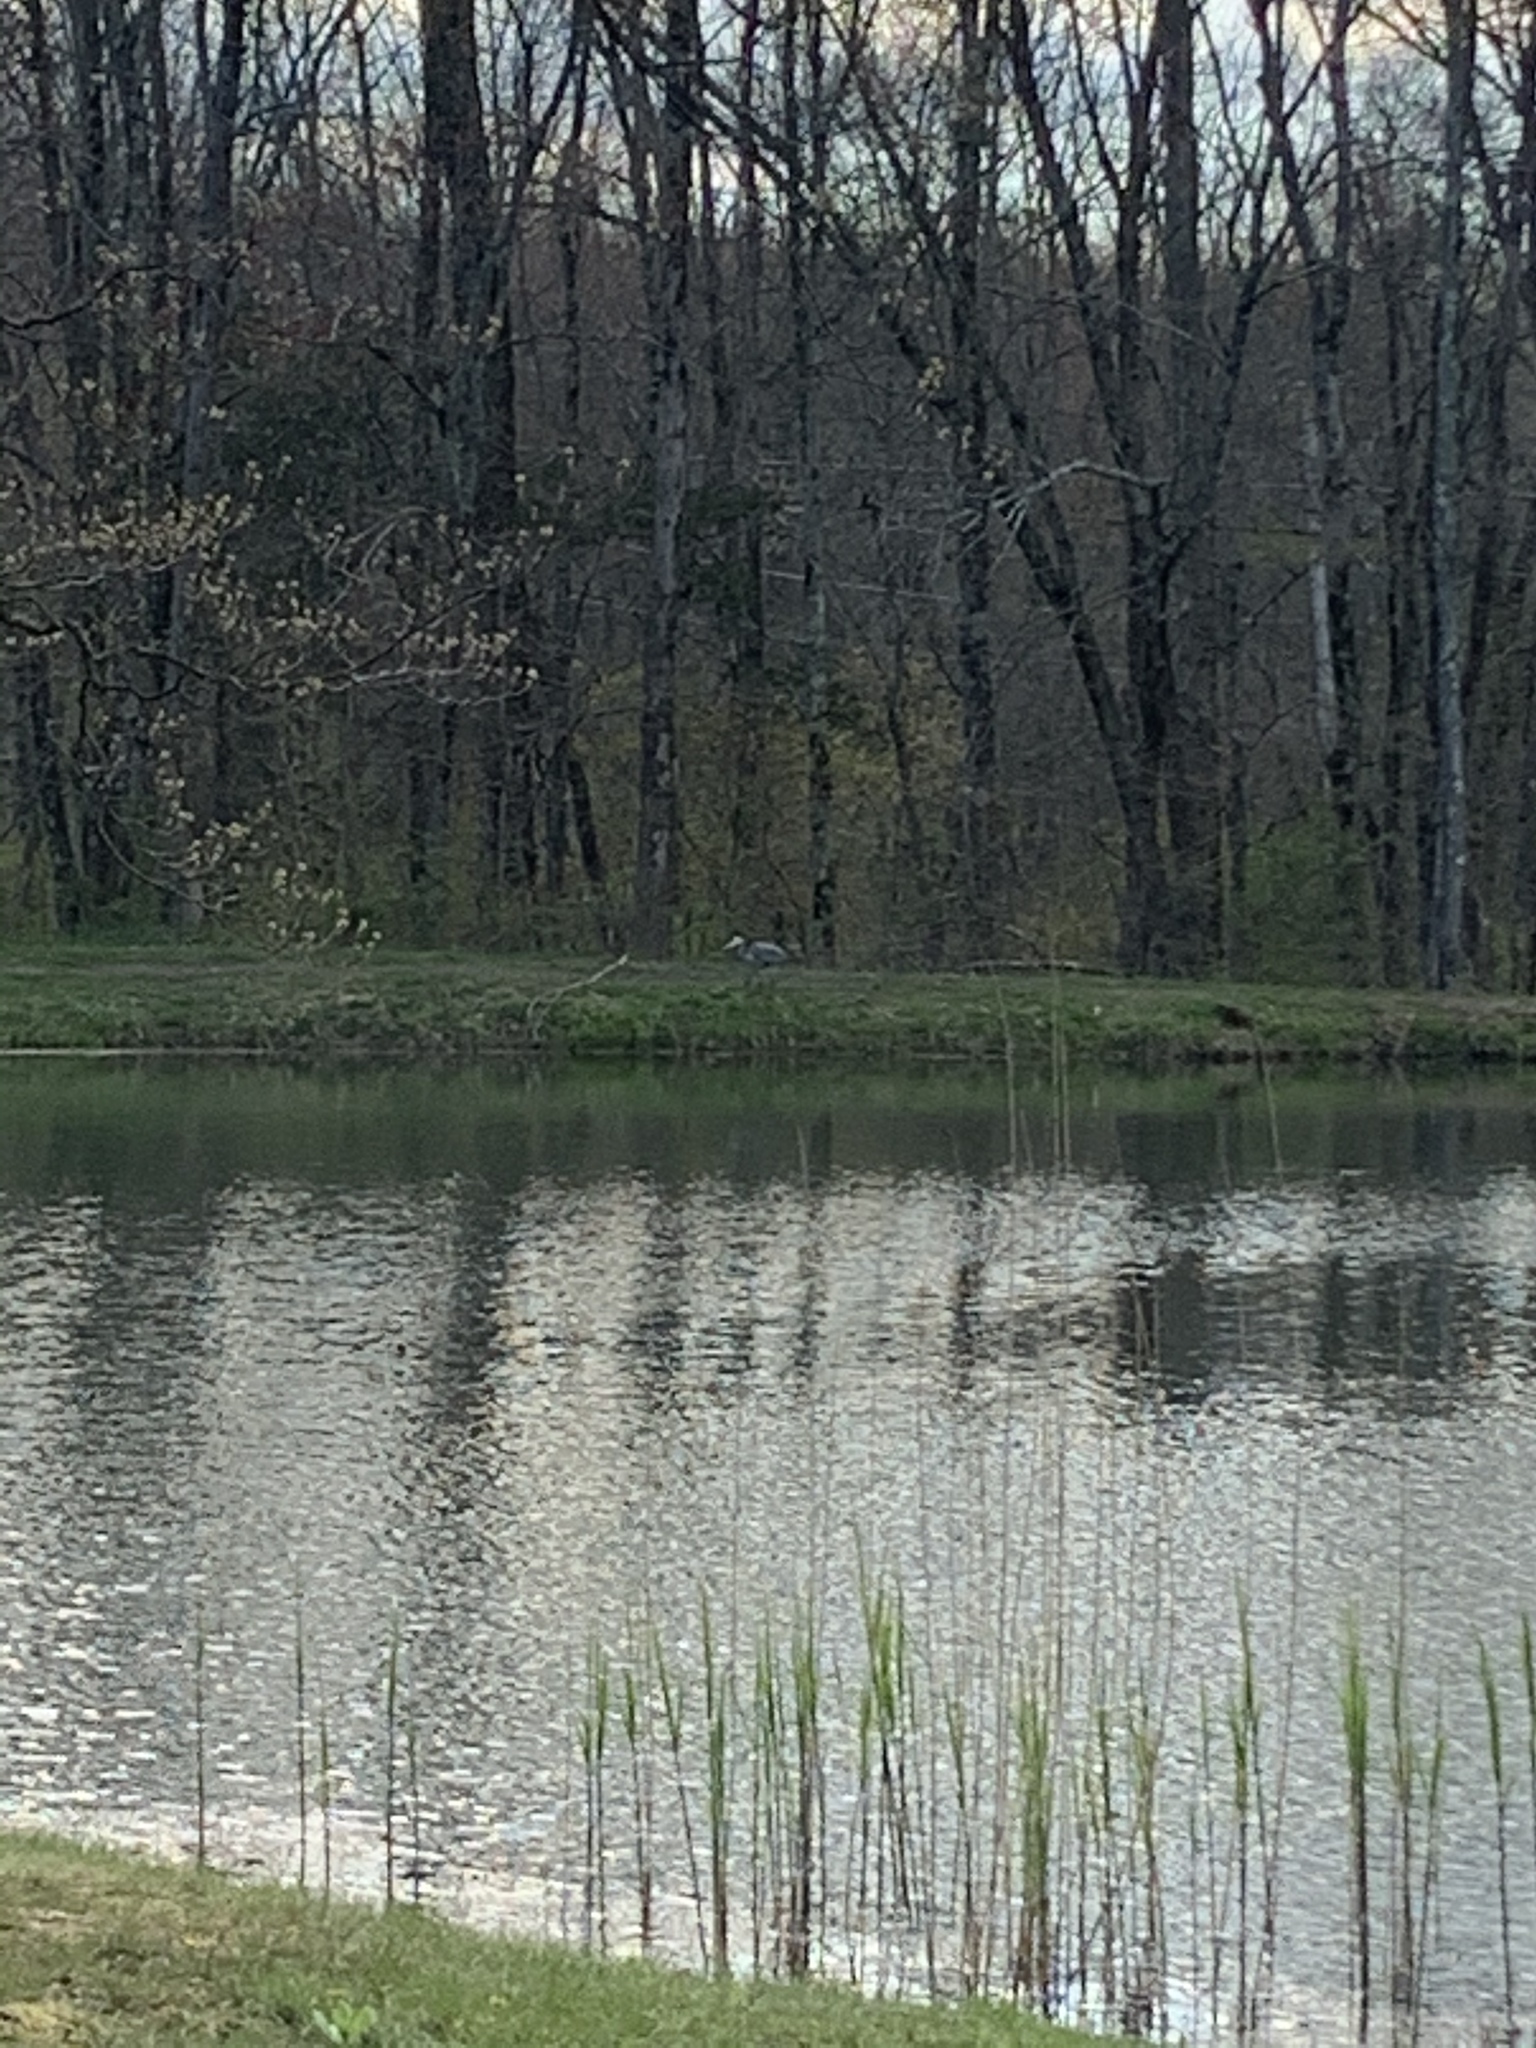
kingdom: Animalia
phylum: Chordata
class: Aves
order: Pelecaniformes
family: Ardeidae
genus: Ardea
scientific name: Ardea herodias
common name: Great blue heron
